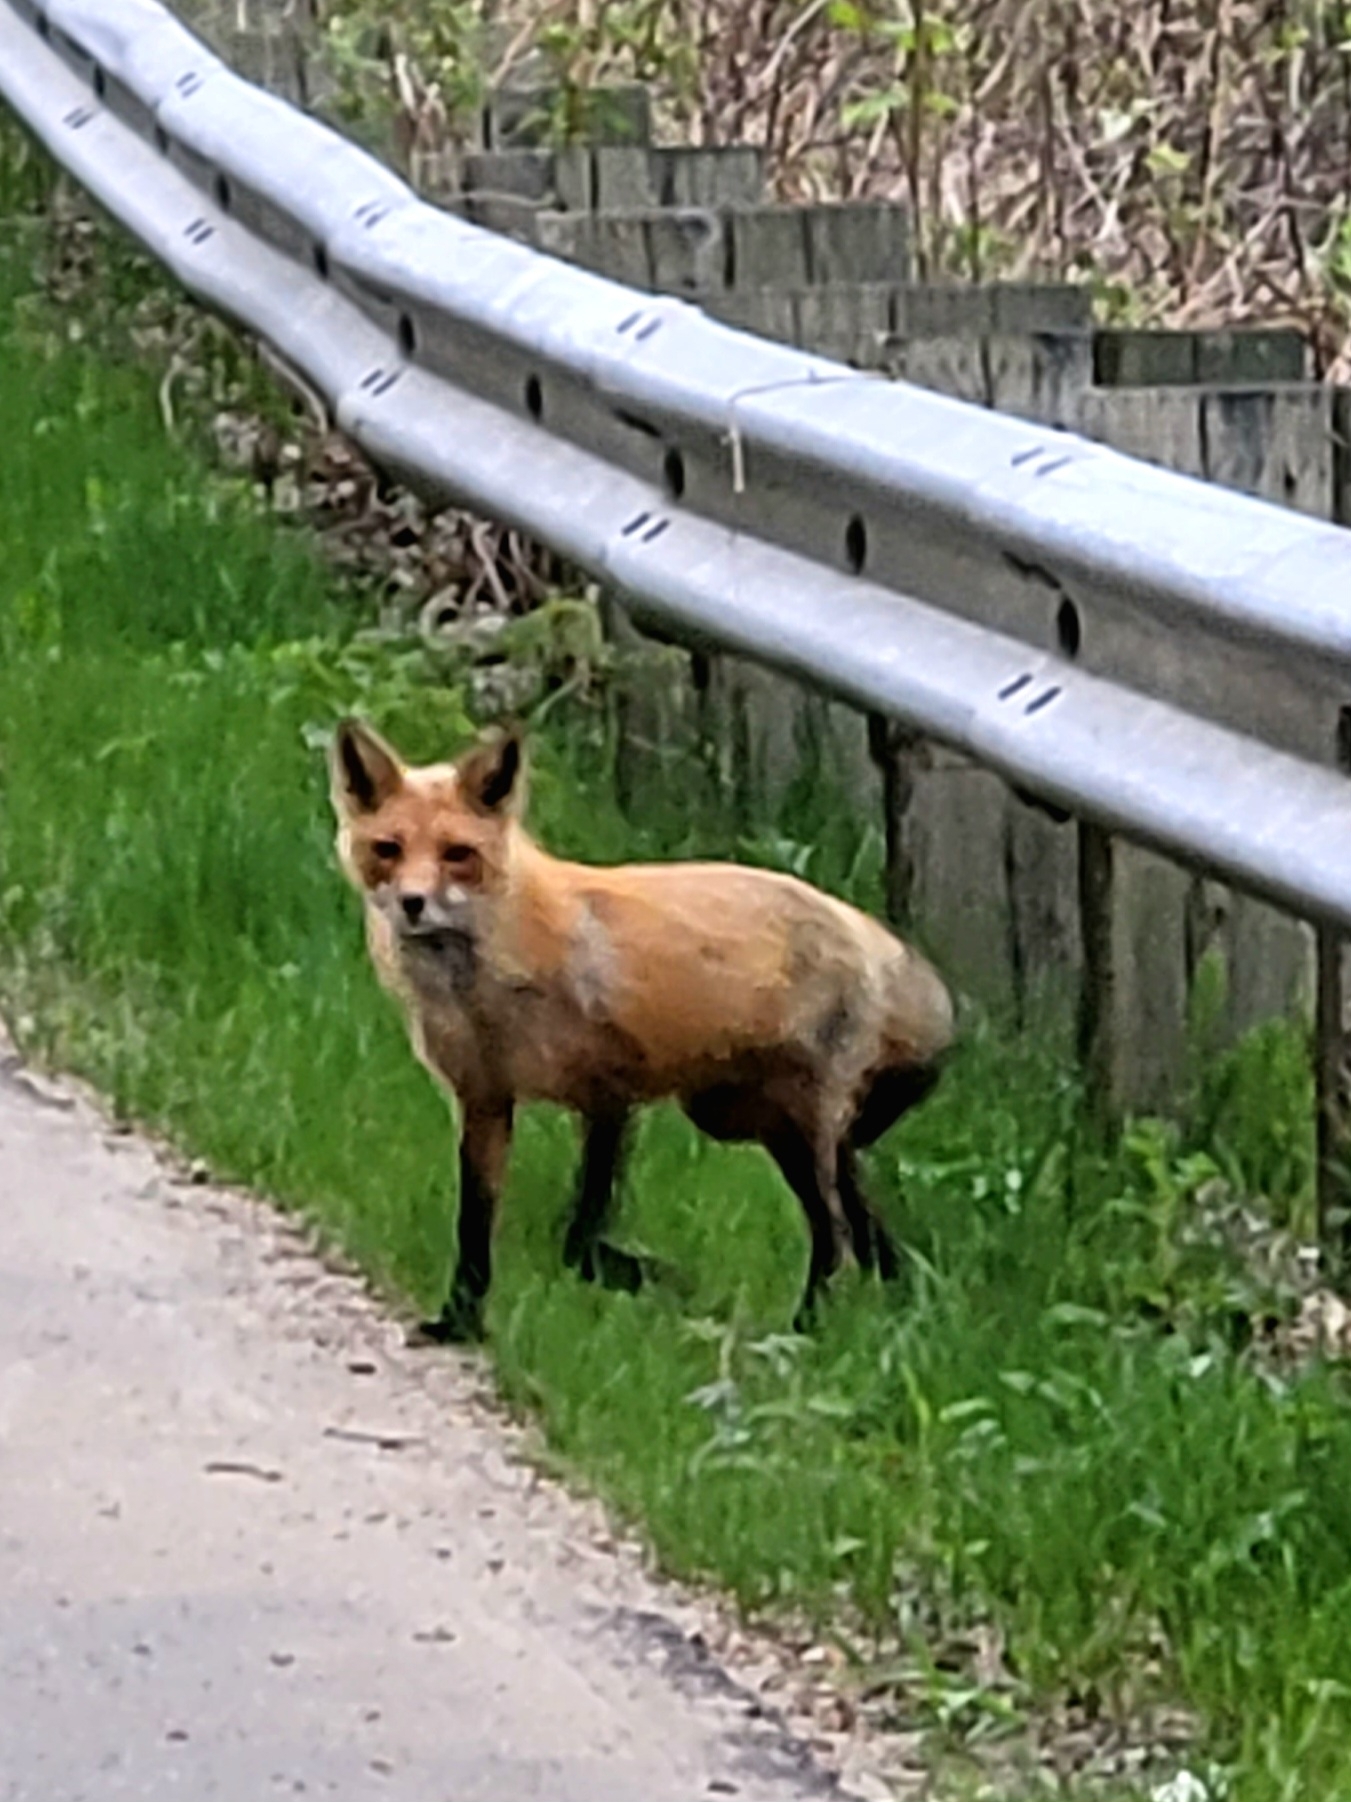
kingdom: Animalia
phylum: Chordata
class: Mammalia
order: Carnivora
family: Canidae
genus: Vulpes
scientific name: Vulpes vulpes
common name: Red fox
